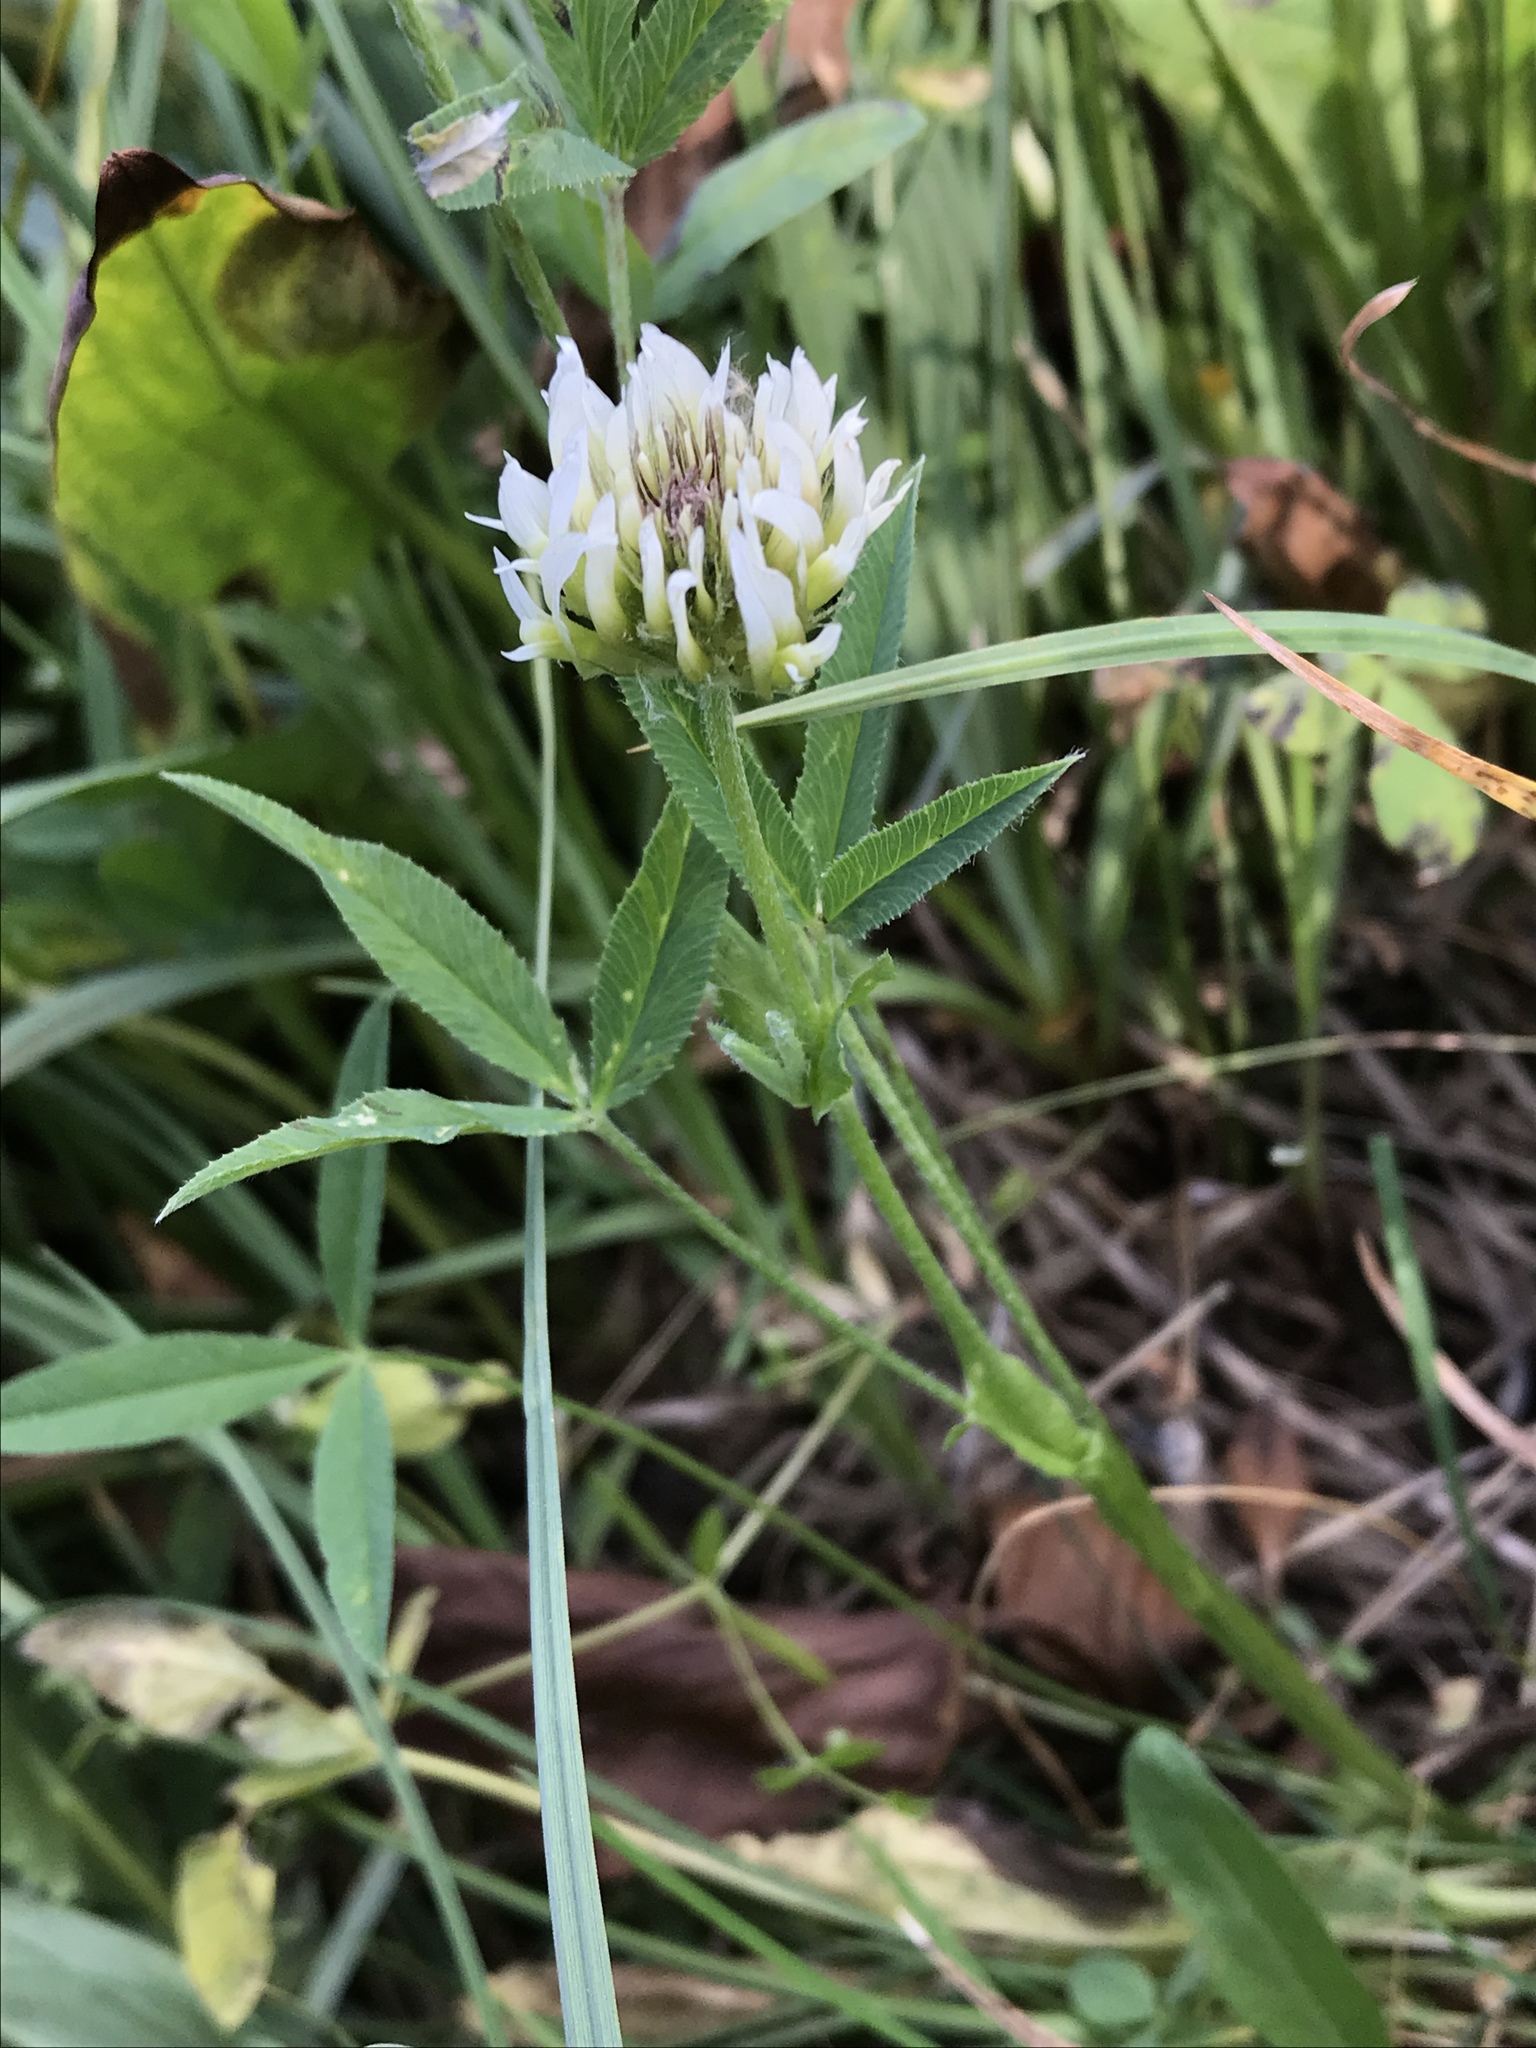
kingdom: Plantae
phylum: Tracheophyta
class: Magnoliopsida
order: Fabales
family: Fabaceae
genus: Trifolium
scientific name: Trifolium longipes
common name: Long-stalk clover
